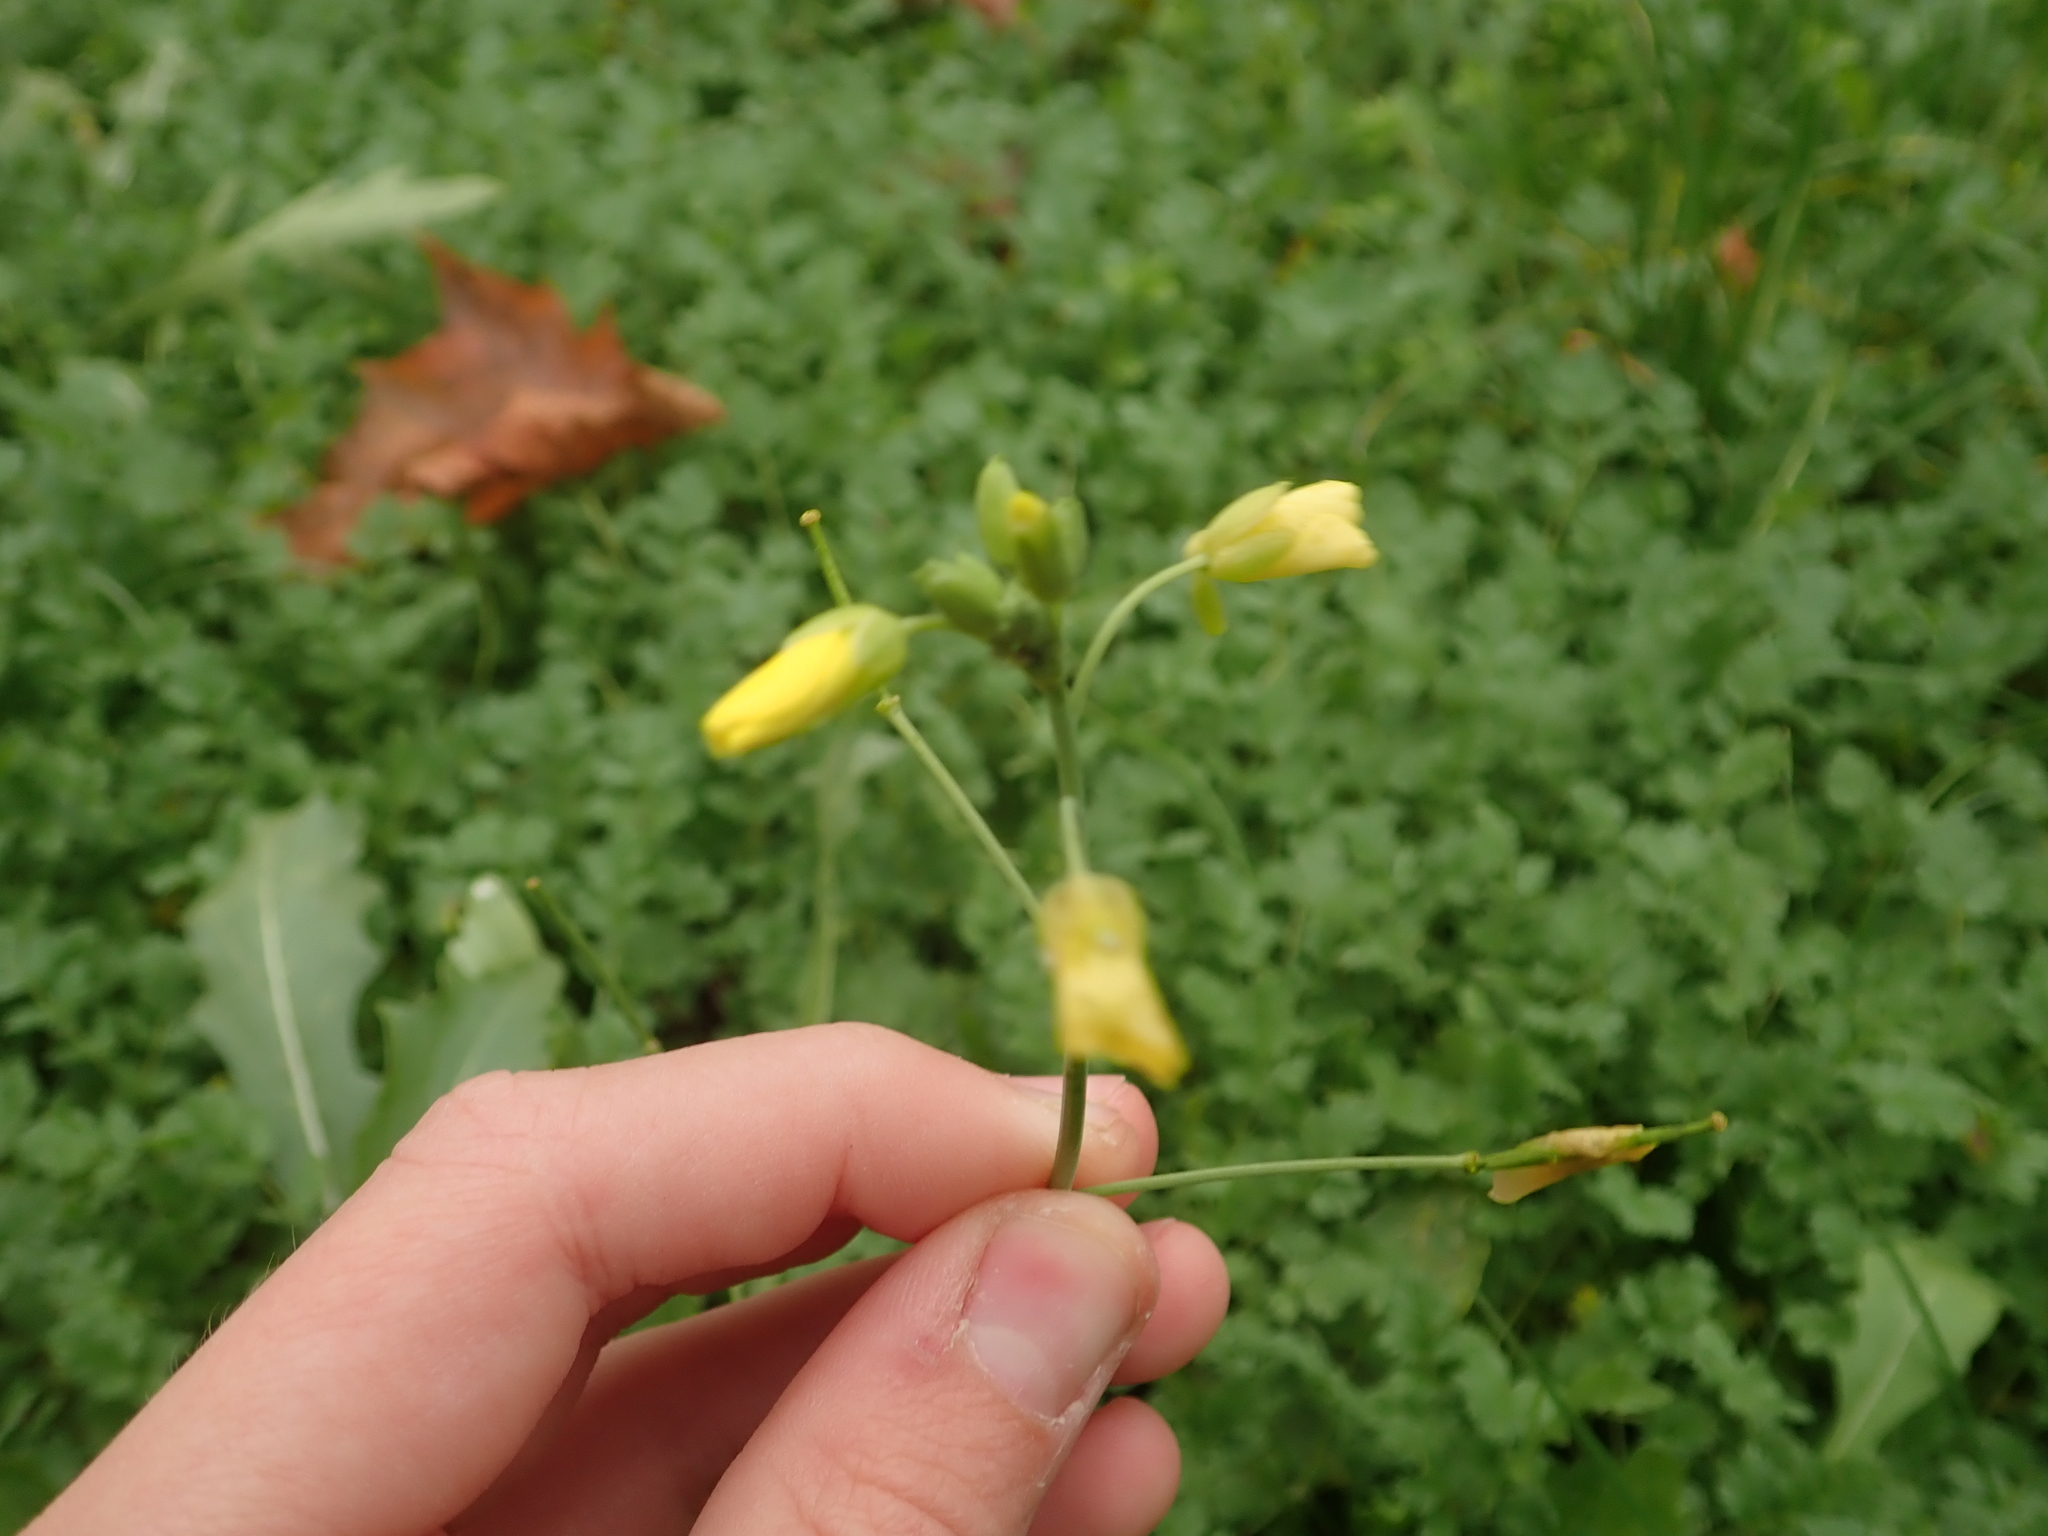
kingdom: Plantae
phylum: Tracheophyta
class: Magnoliopsida
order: Brassicales
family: Brassicaceae
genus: Diplotaxis
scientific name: Diplotaxis tenuifolia
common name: Perennial wall-rocket
